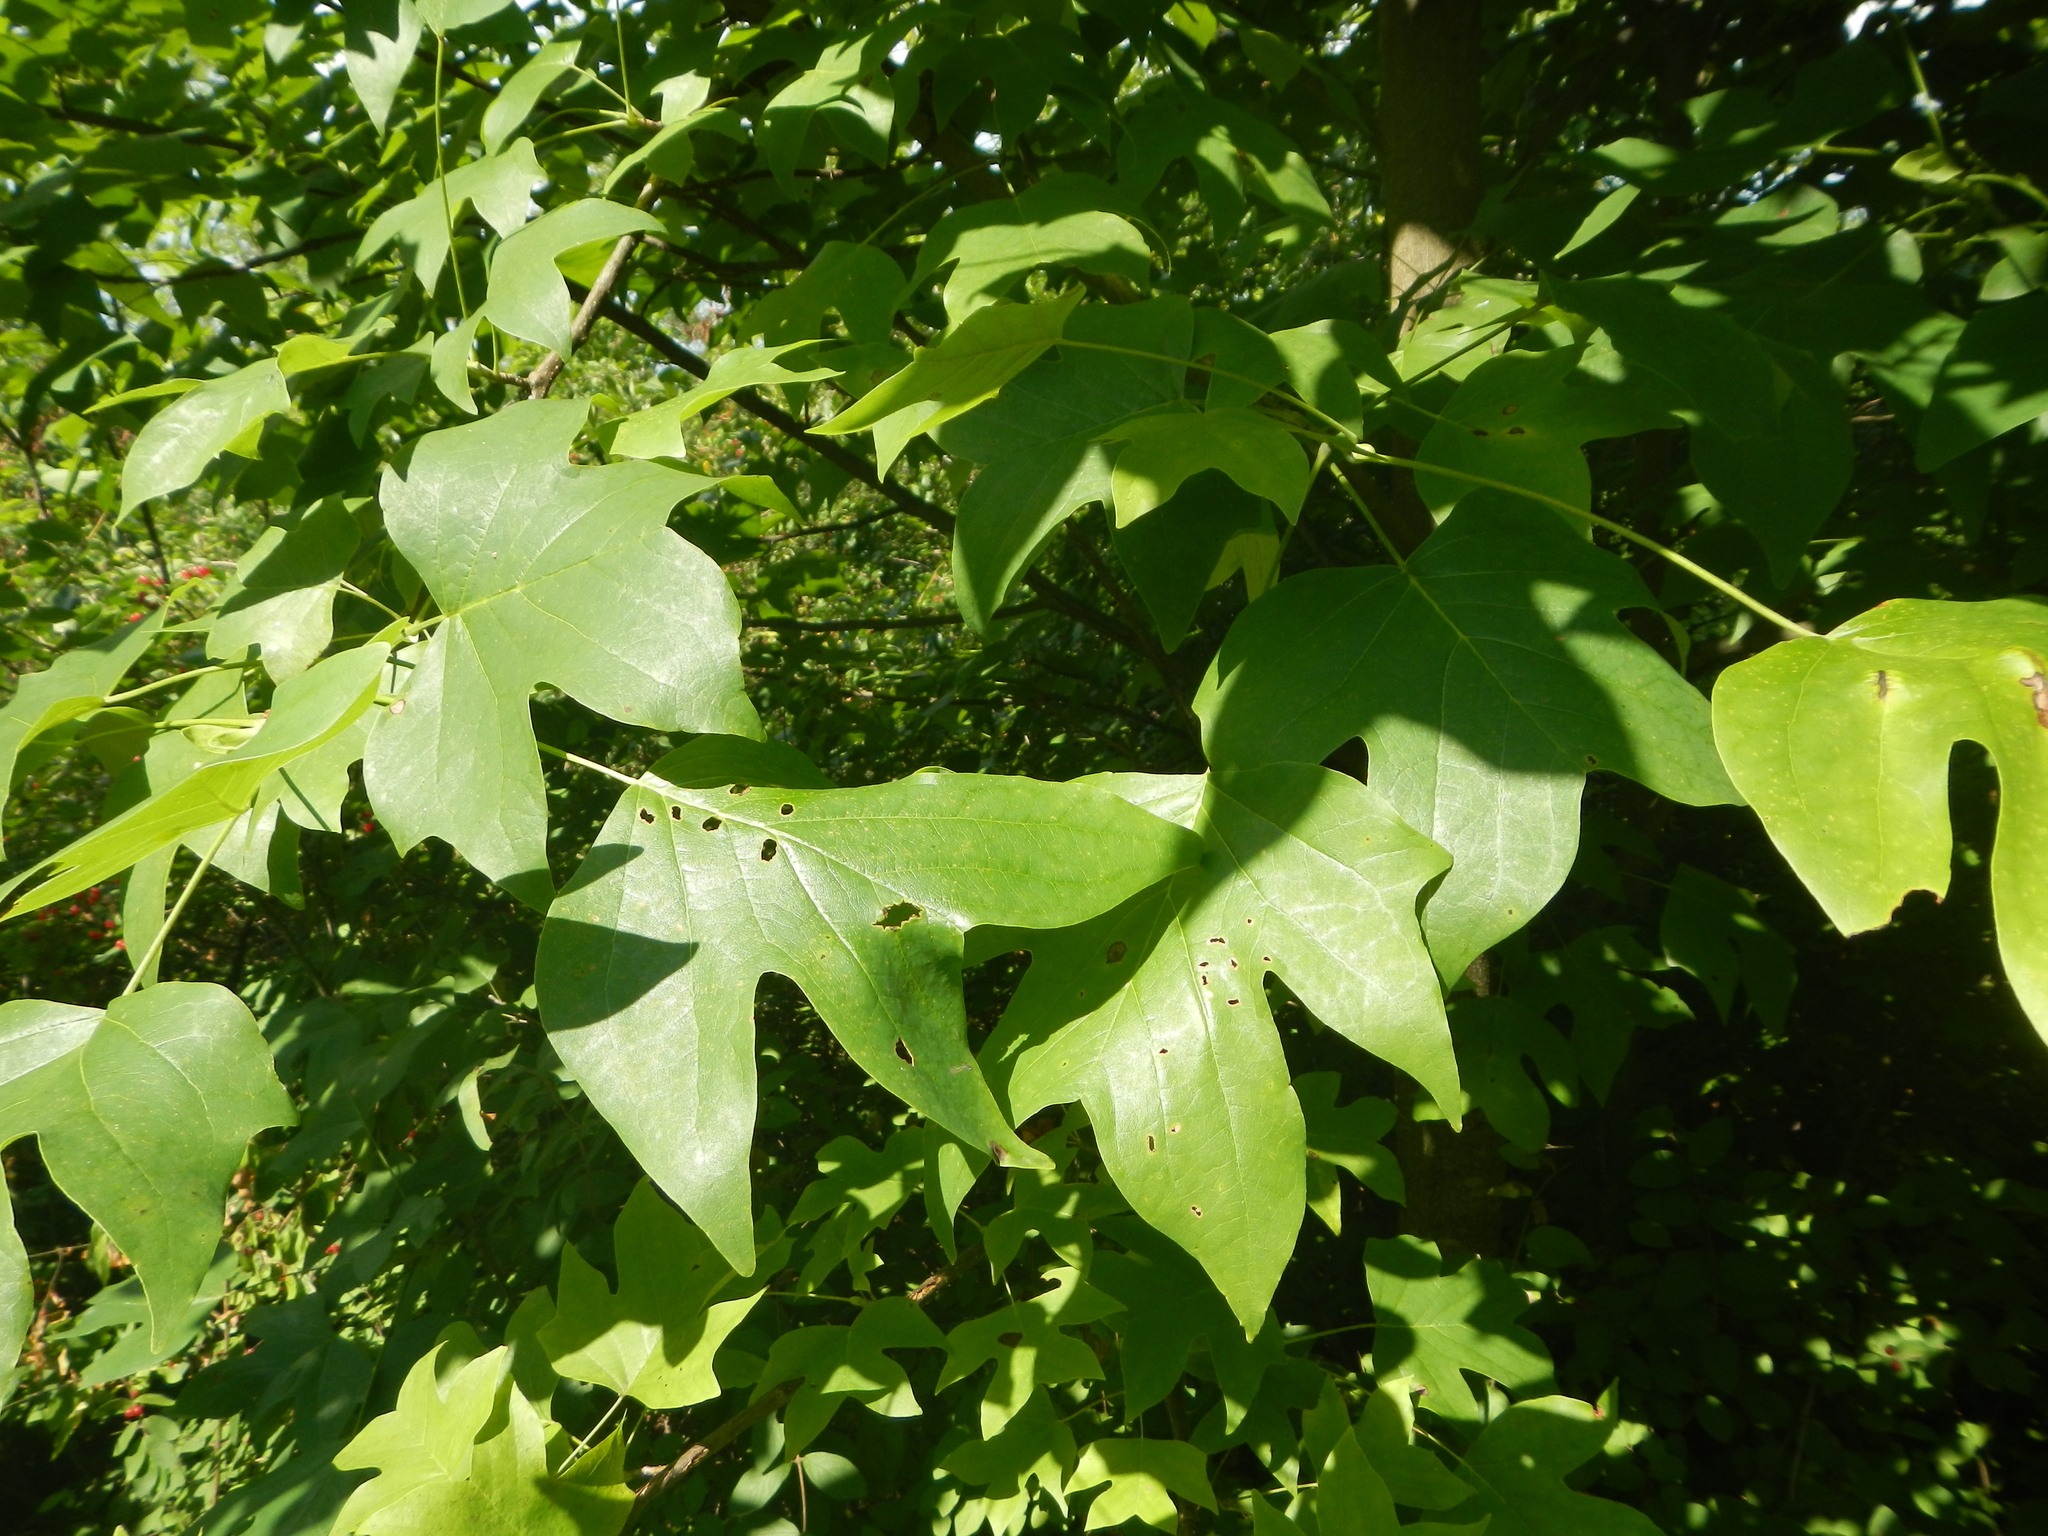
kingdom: Plantae
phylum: Tracheophyta
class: Magnoliopsida
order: Magnoliales
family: Magnoliaceae
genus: Liriodendron
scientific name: Liriodendron tulipifera
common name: Tulip tree
